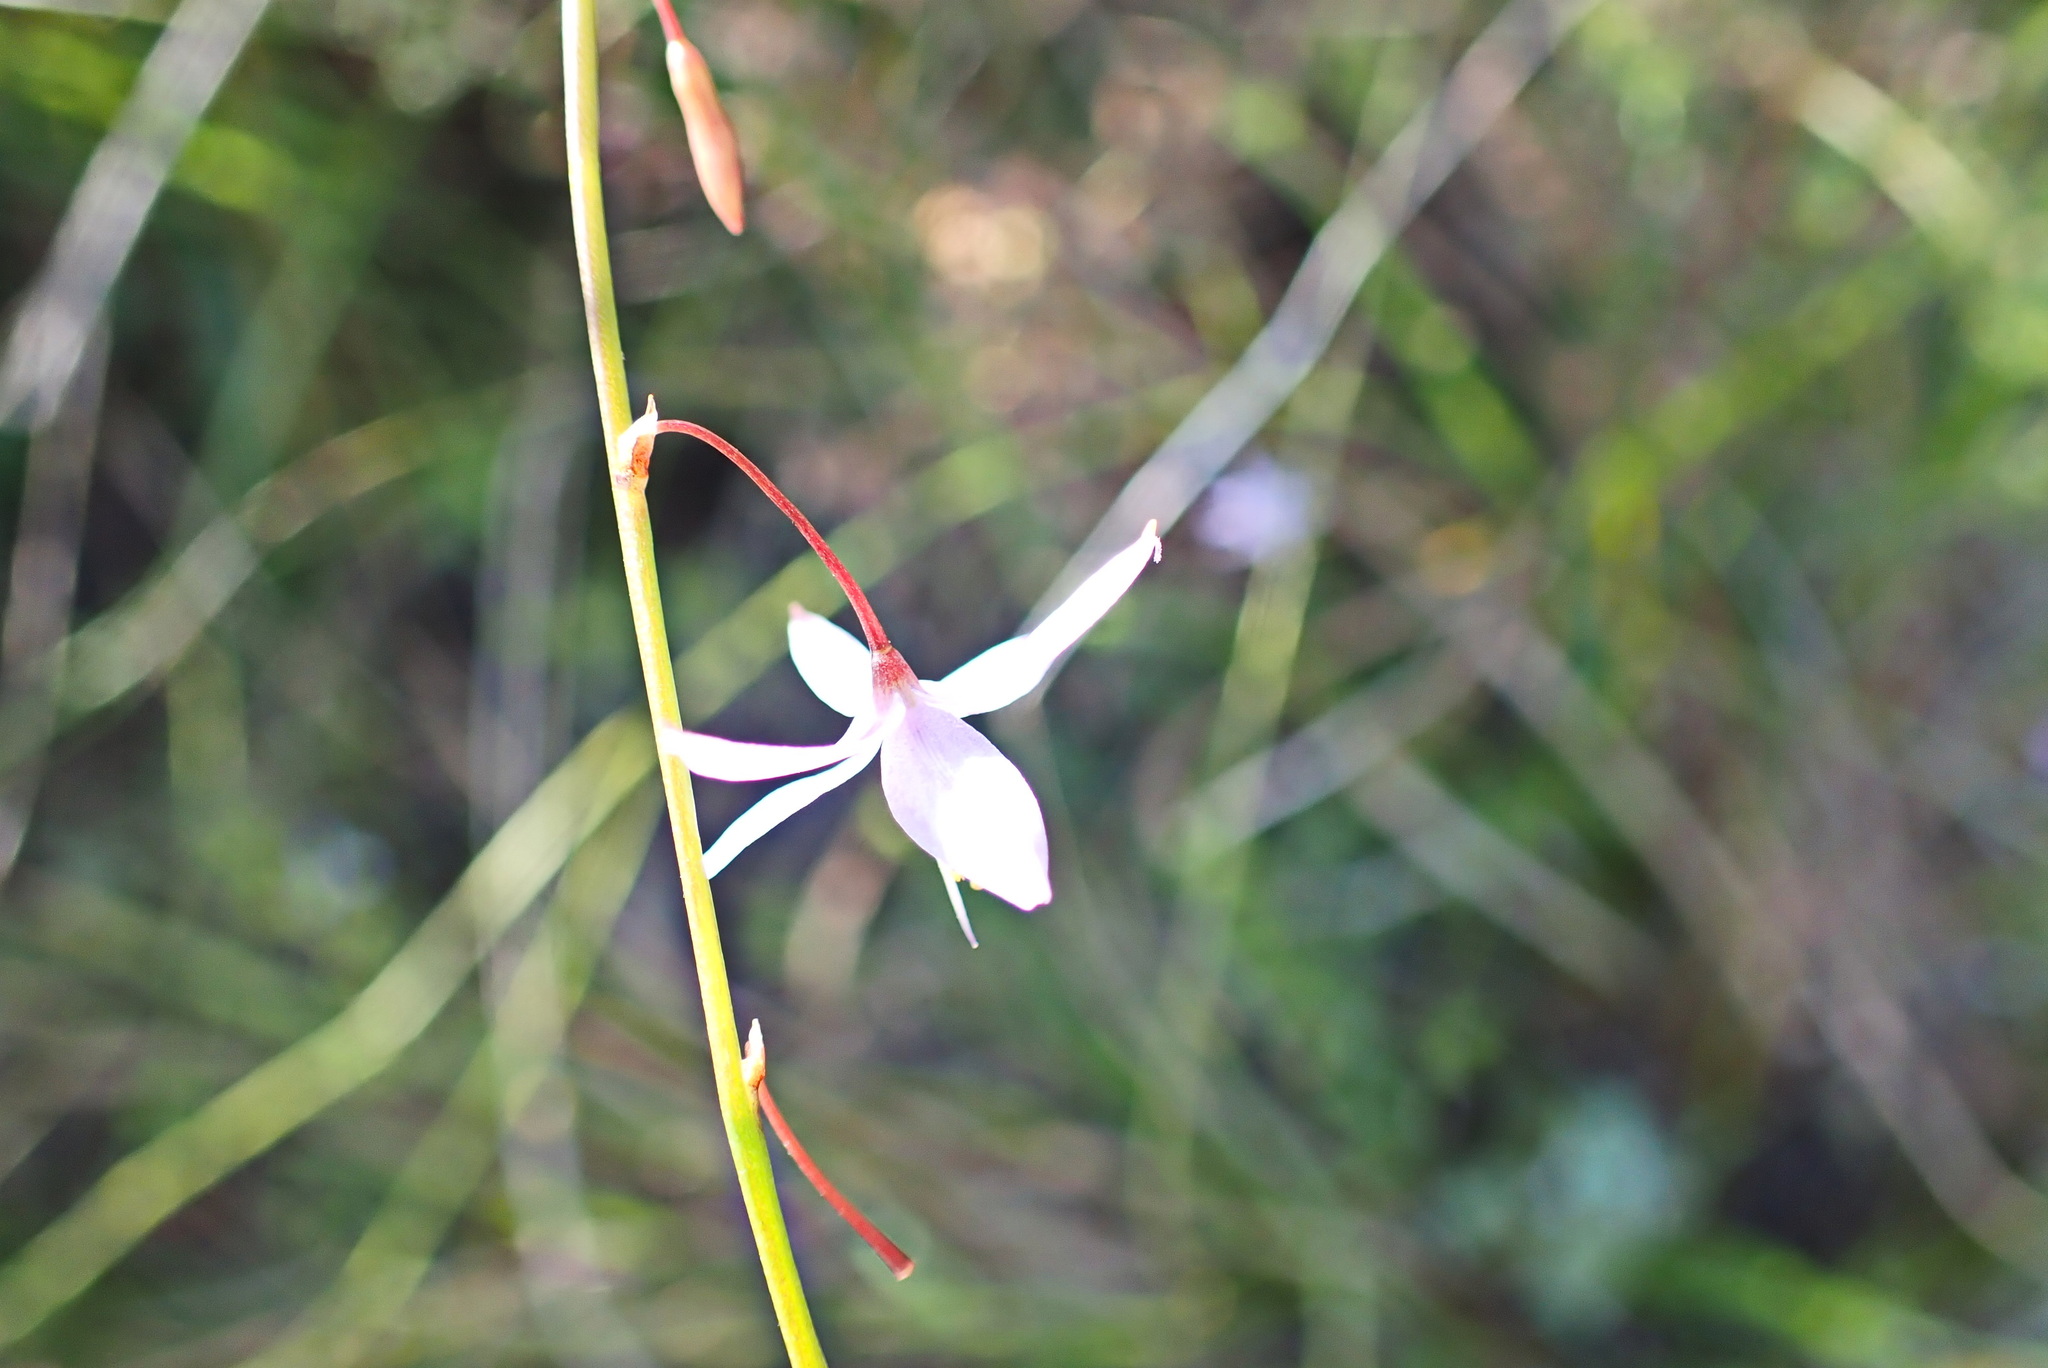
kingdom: Plantae
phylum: Tracheophyta
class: Liliopsida
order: Asparagales
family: Asphodelaceae
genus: Caesia
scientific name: Caesia contorta
